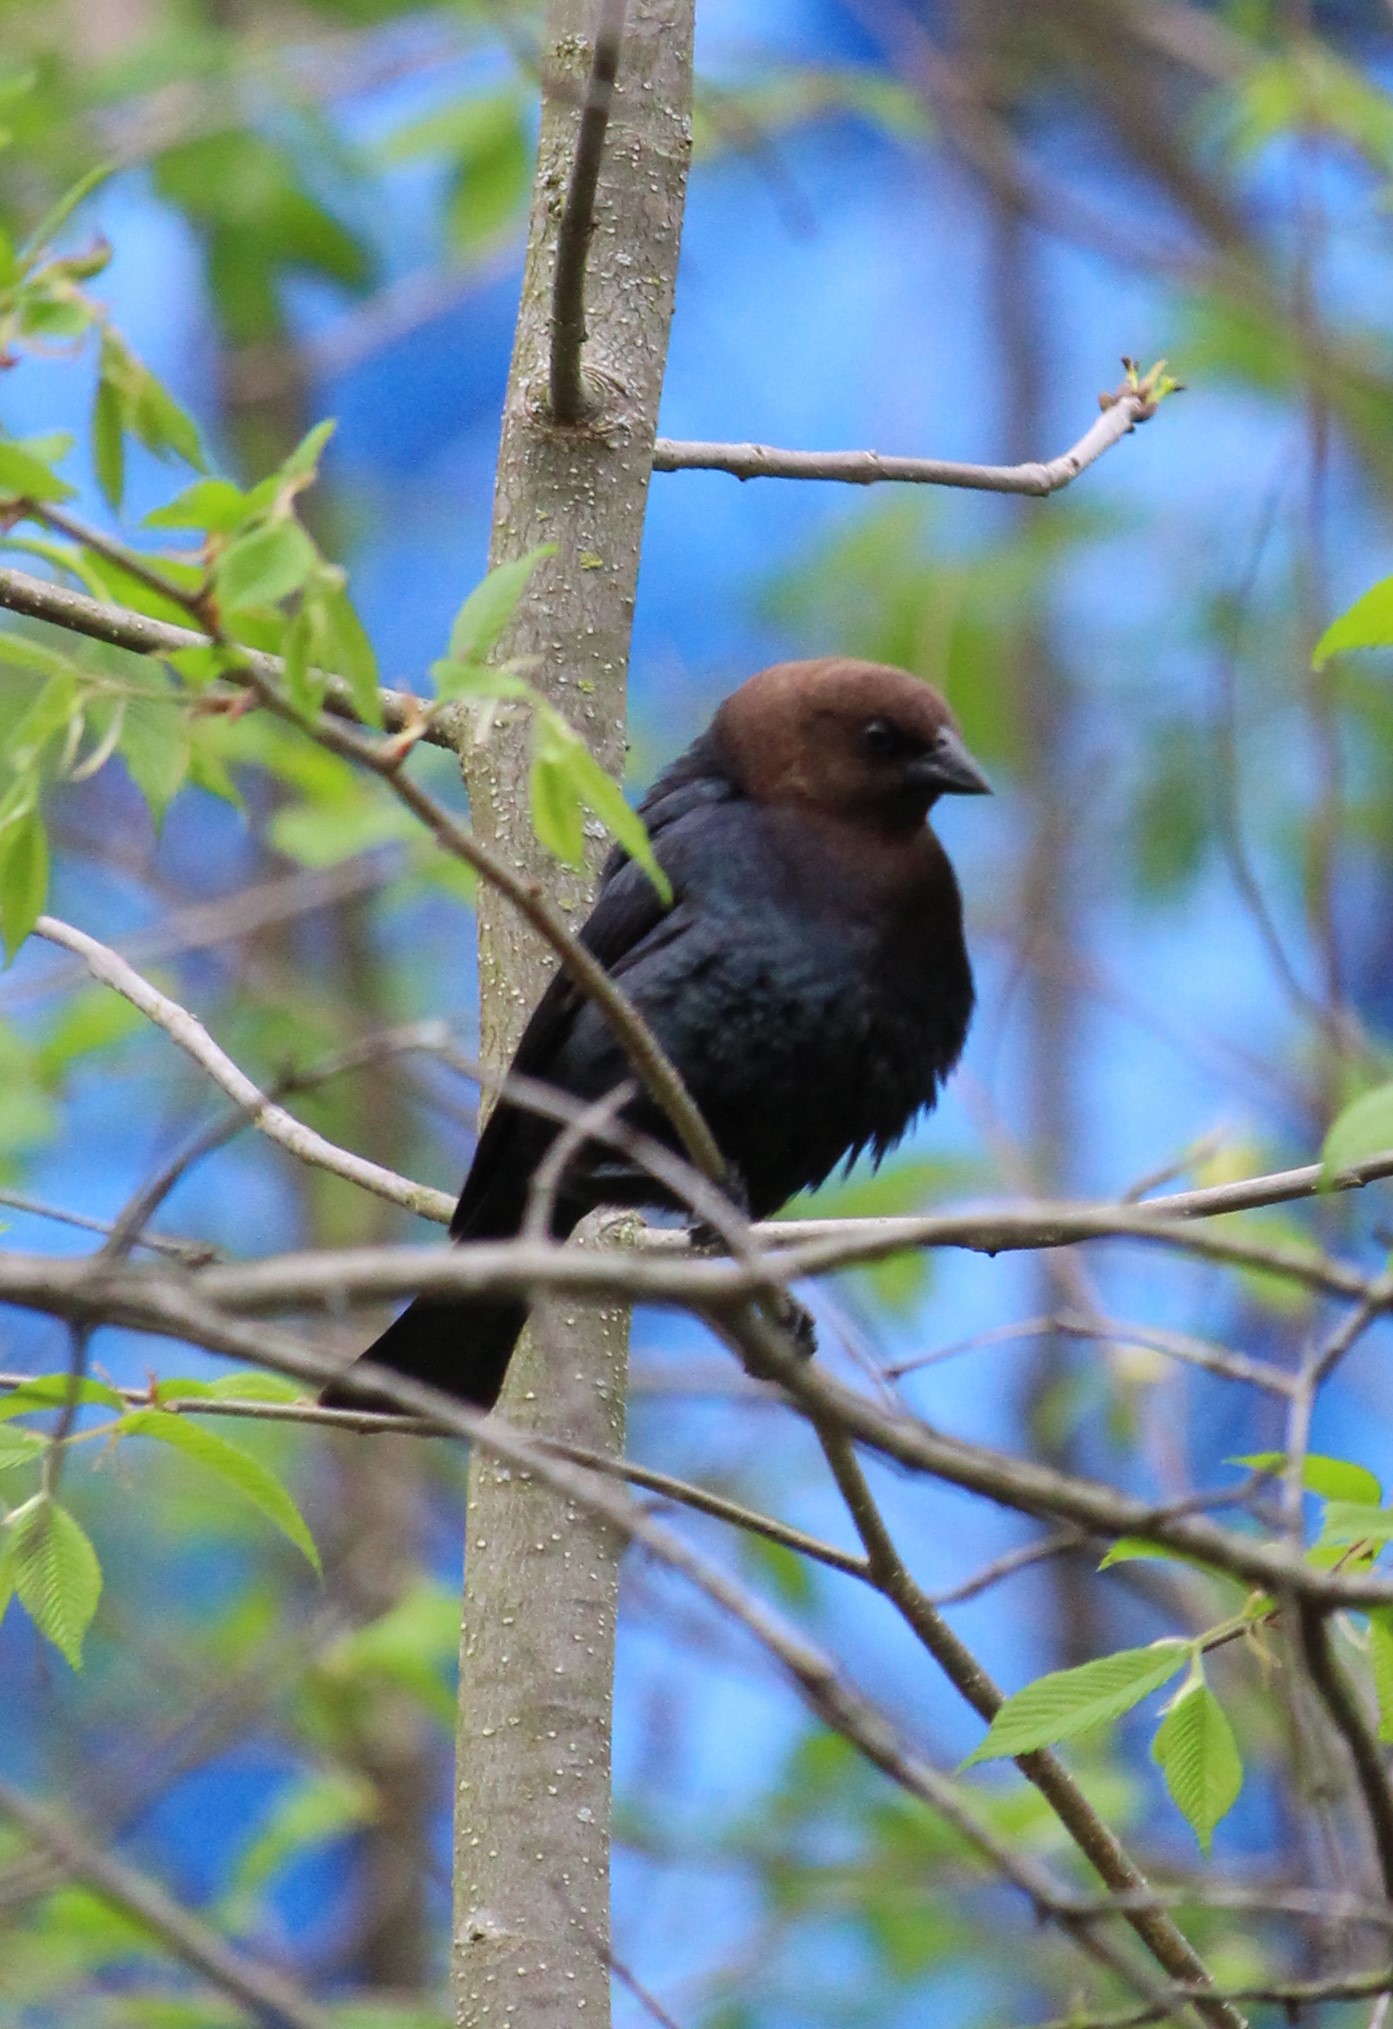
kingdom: Animalia
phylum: Chordata
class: Aves
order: Passeriformes
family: Icteridae
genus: Molothrus
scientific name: Molothrus ater
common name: Brown-headed cowbird
